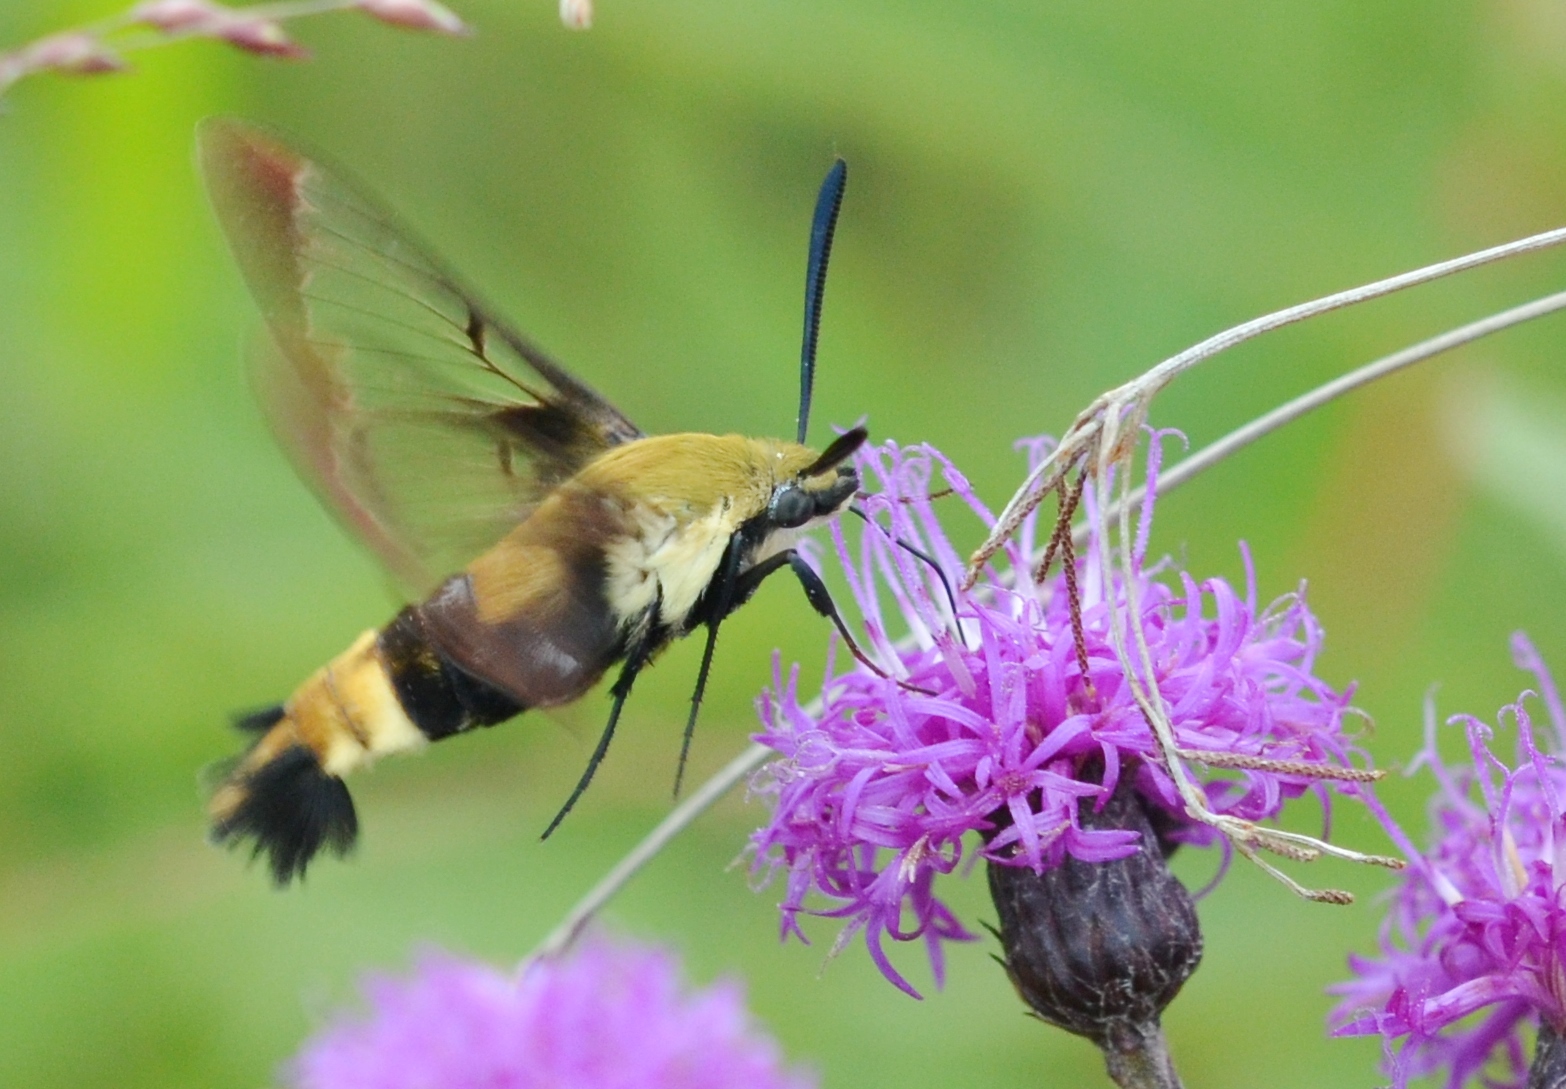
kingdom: Animalia
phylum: Arthropoda
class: Insecta
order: Lepidoptera
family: Sphingidae
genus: Hemaris
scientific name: Hemaris diffinis
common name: Bumblebee moth
